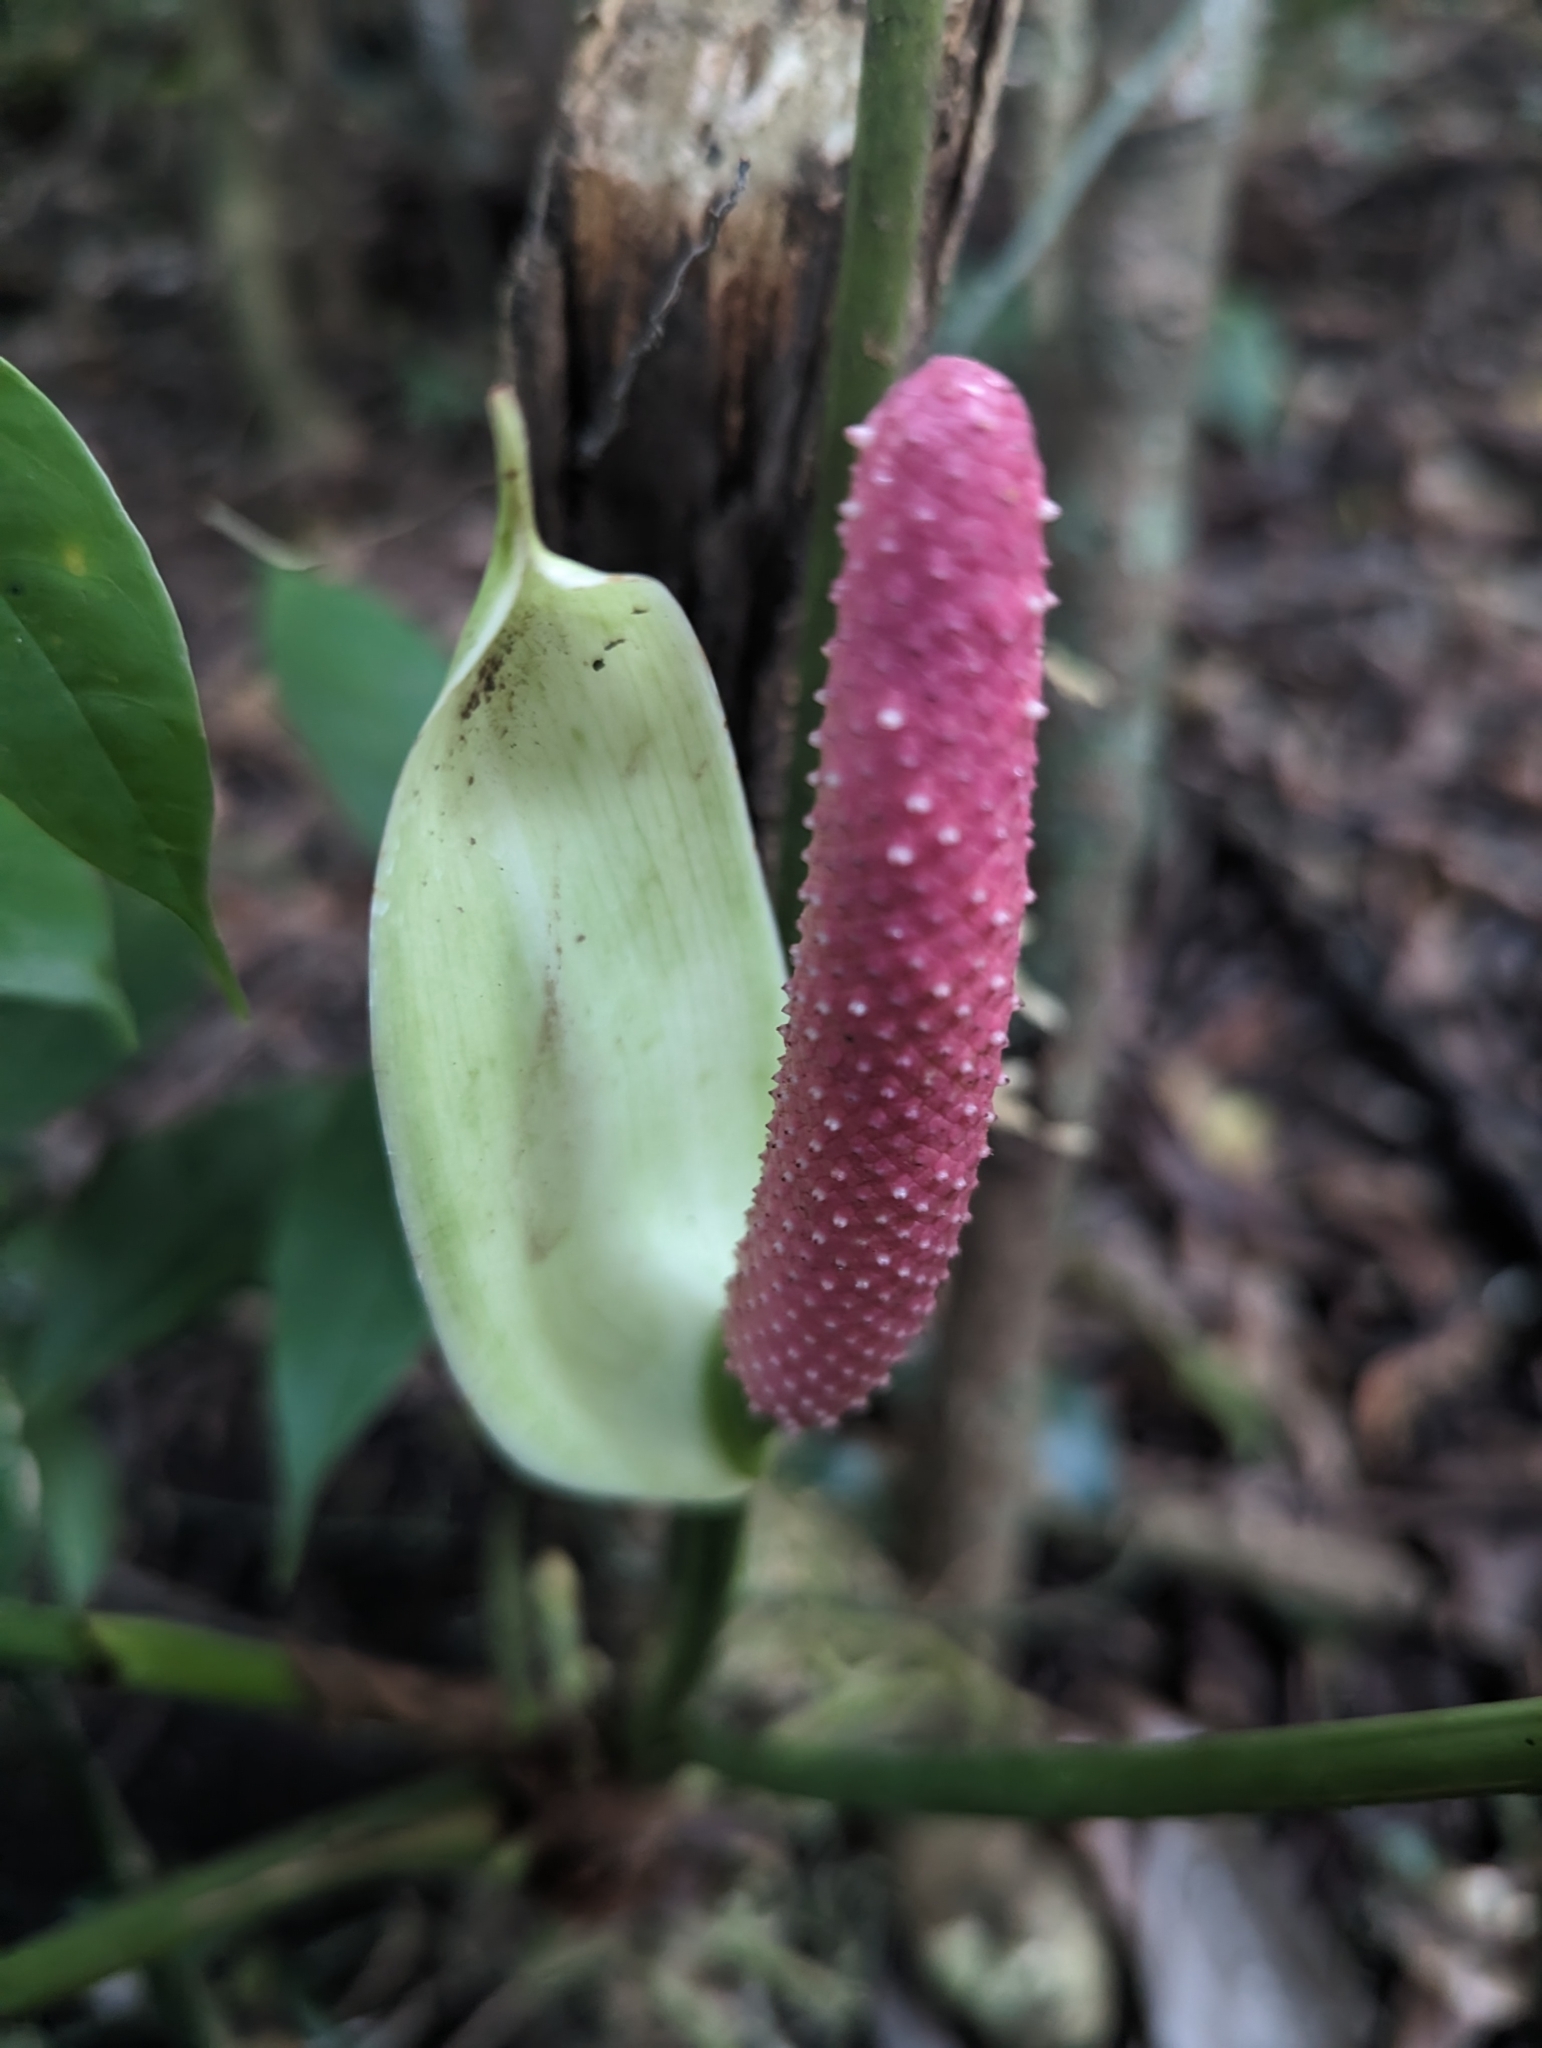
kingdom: Plantae
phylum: Tracheophyta
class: Liliopsida
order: Alismatales
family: Araceae
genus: Anthurium
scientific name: Anthurium monteverdense
